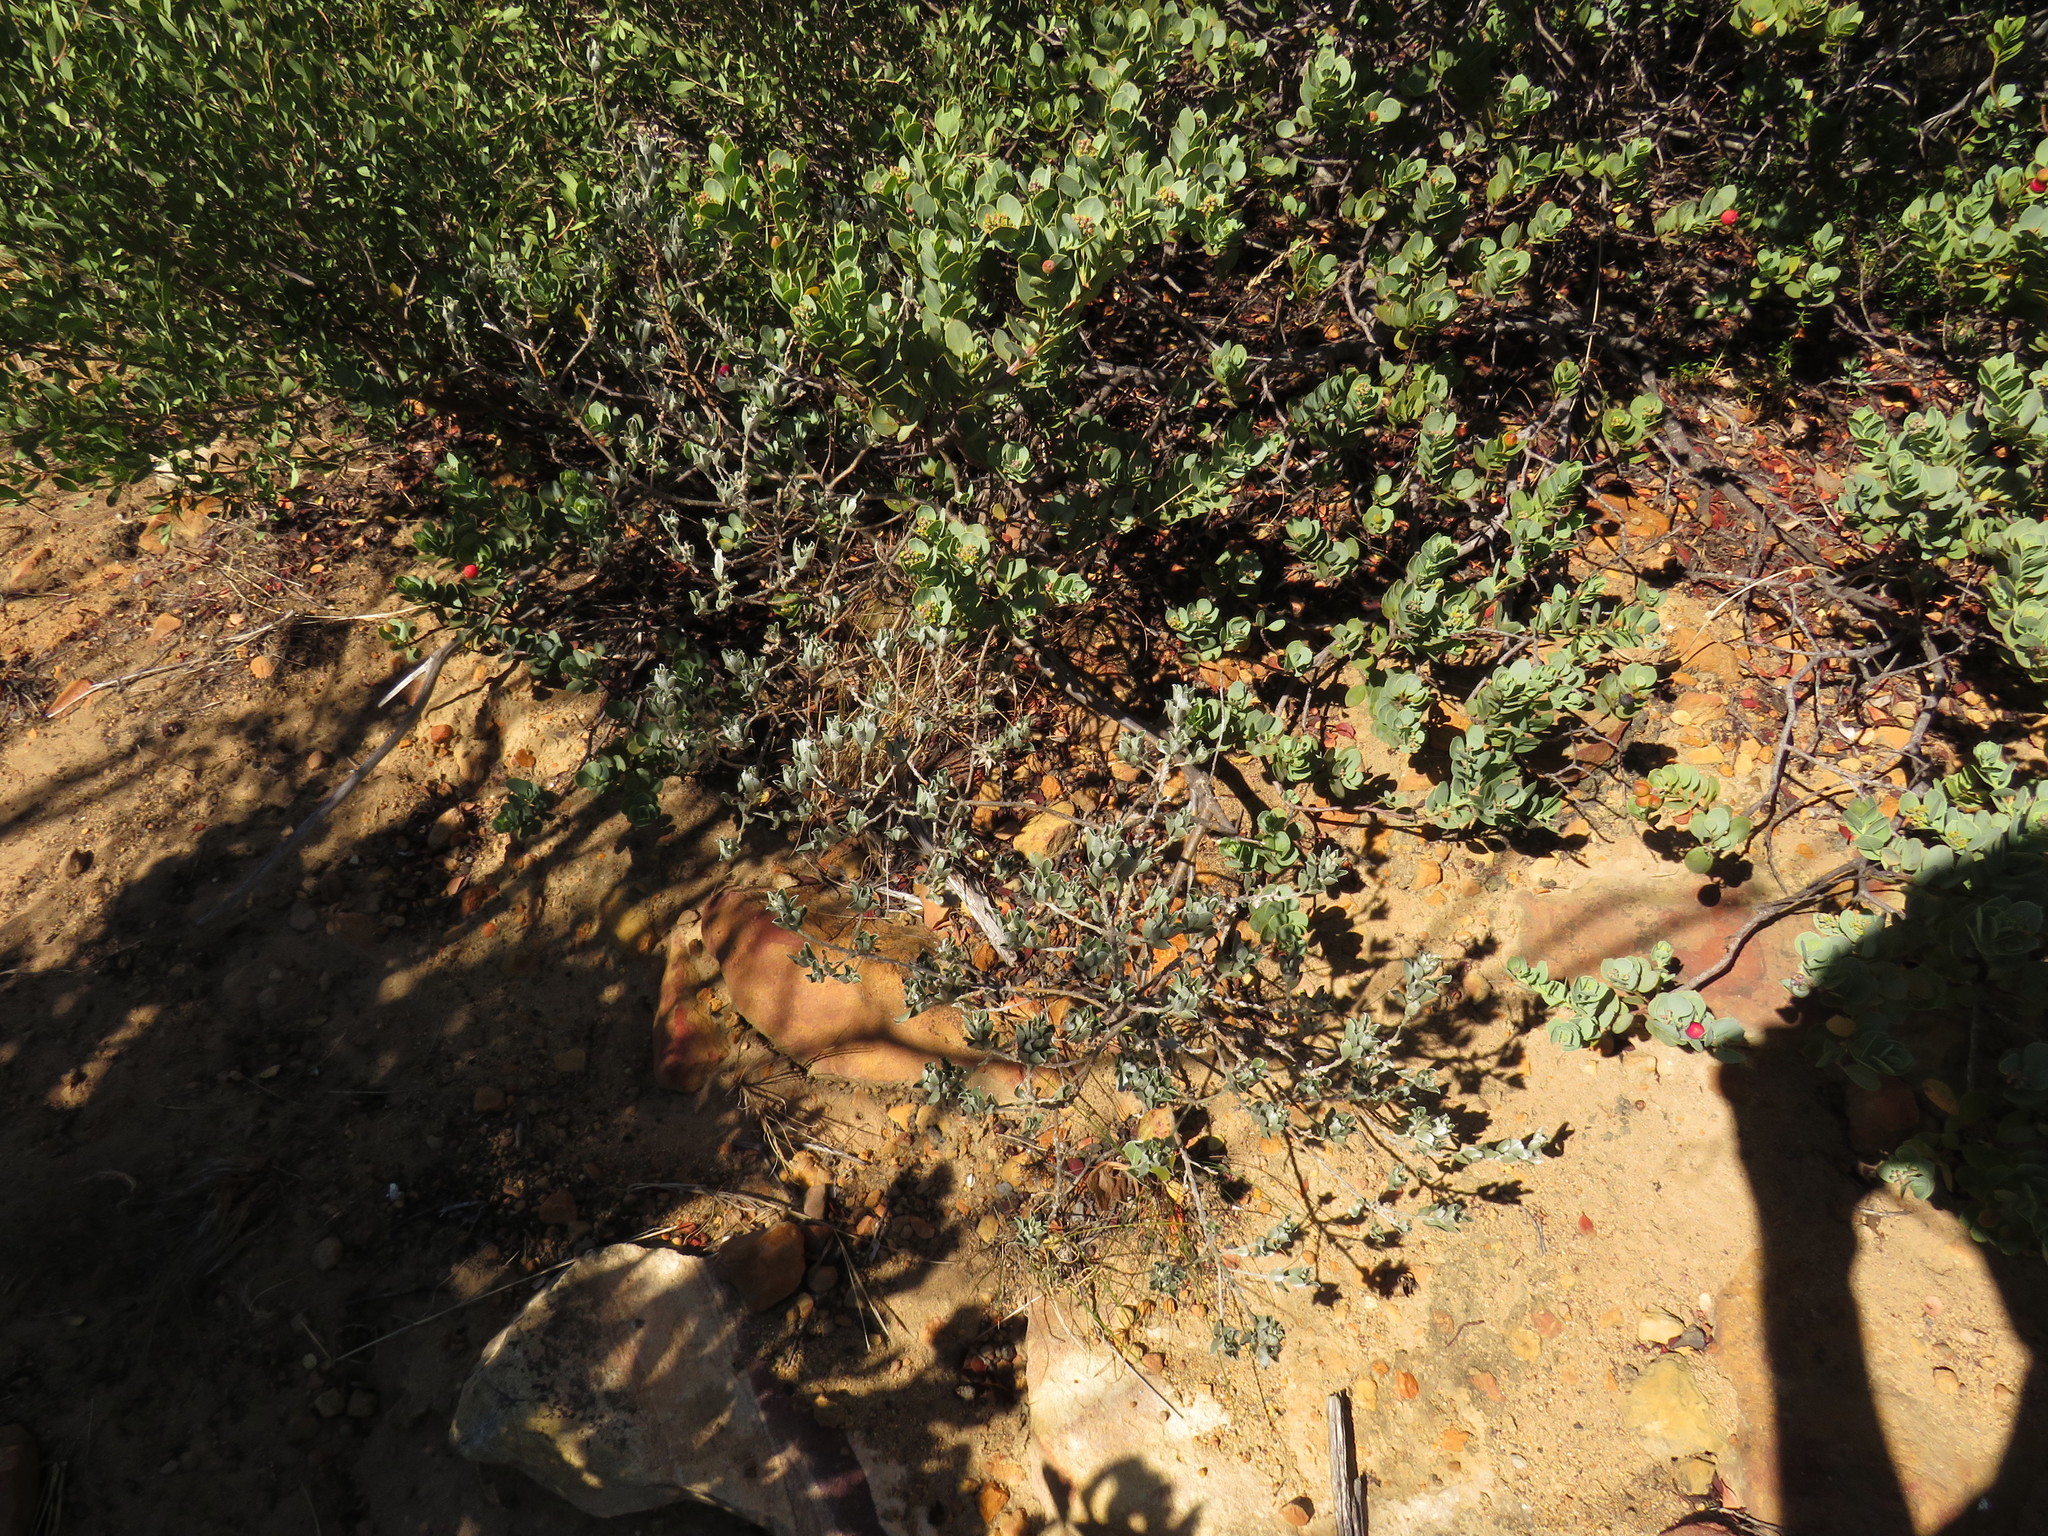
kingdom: Plantae
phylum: Tracheophyta
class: Magnoliopsida
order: Fabales
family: Fabaceae
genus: Podalyria
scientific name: Podalyria sericea
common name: Silver podalyria
